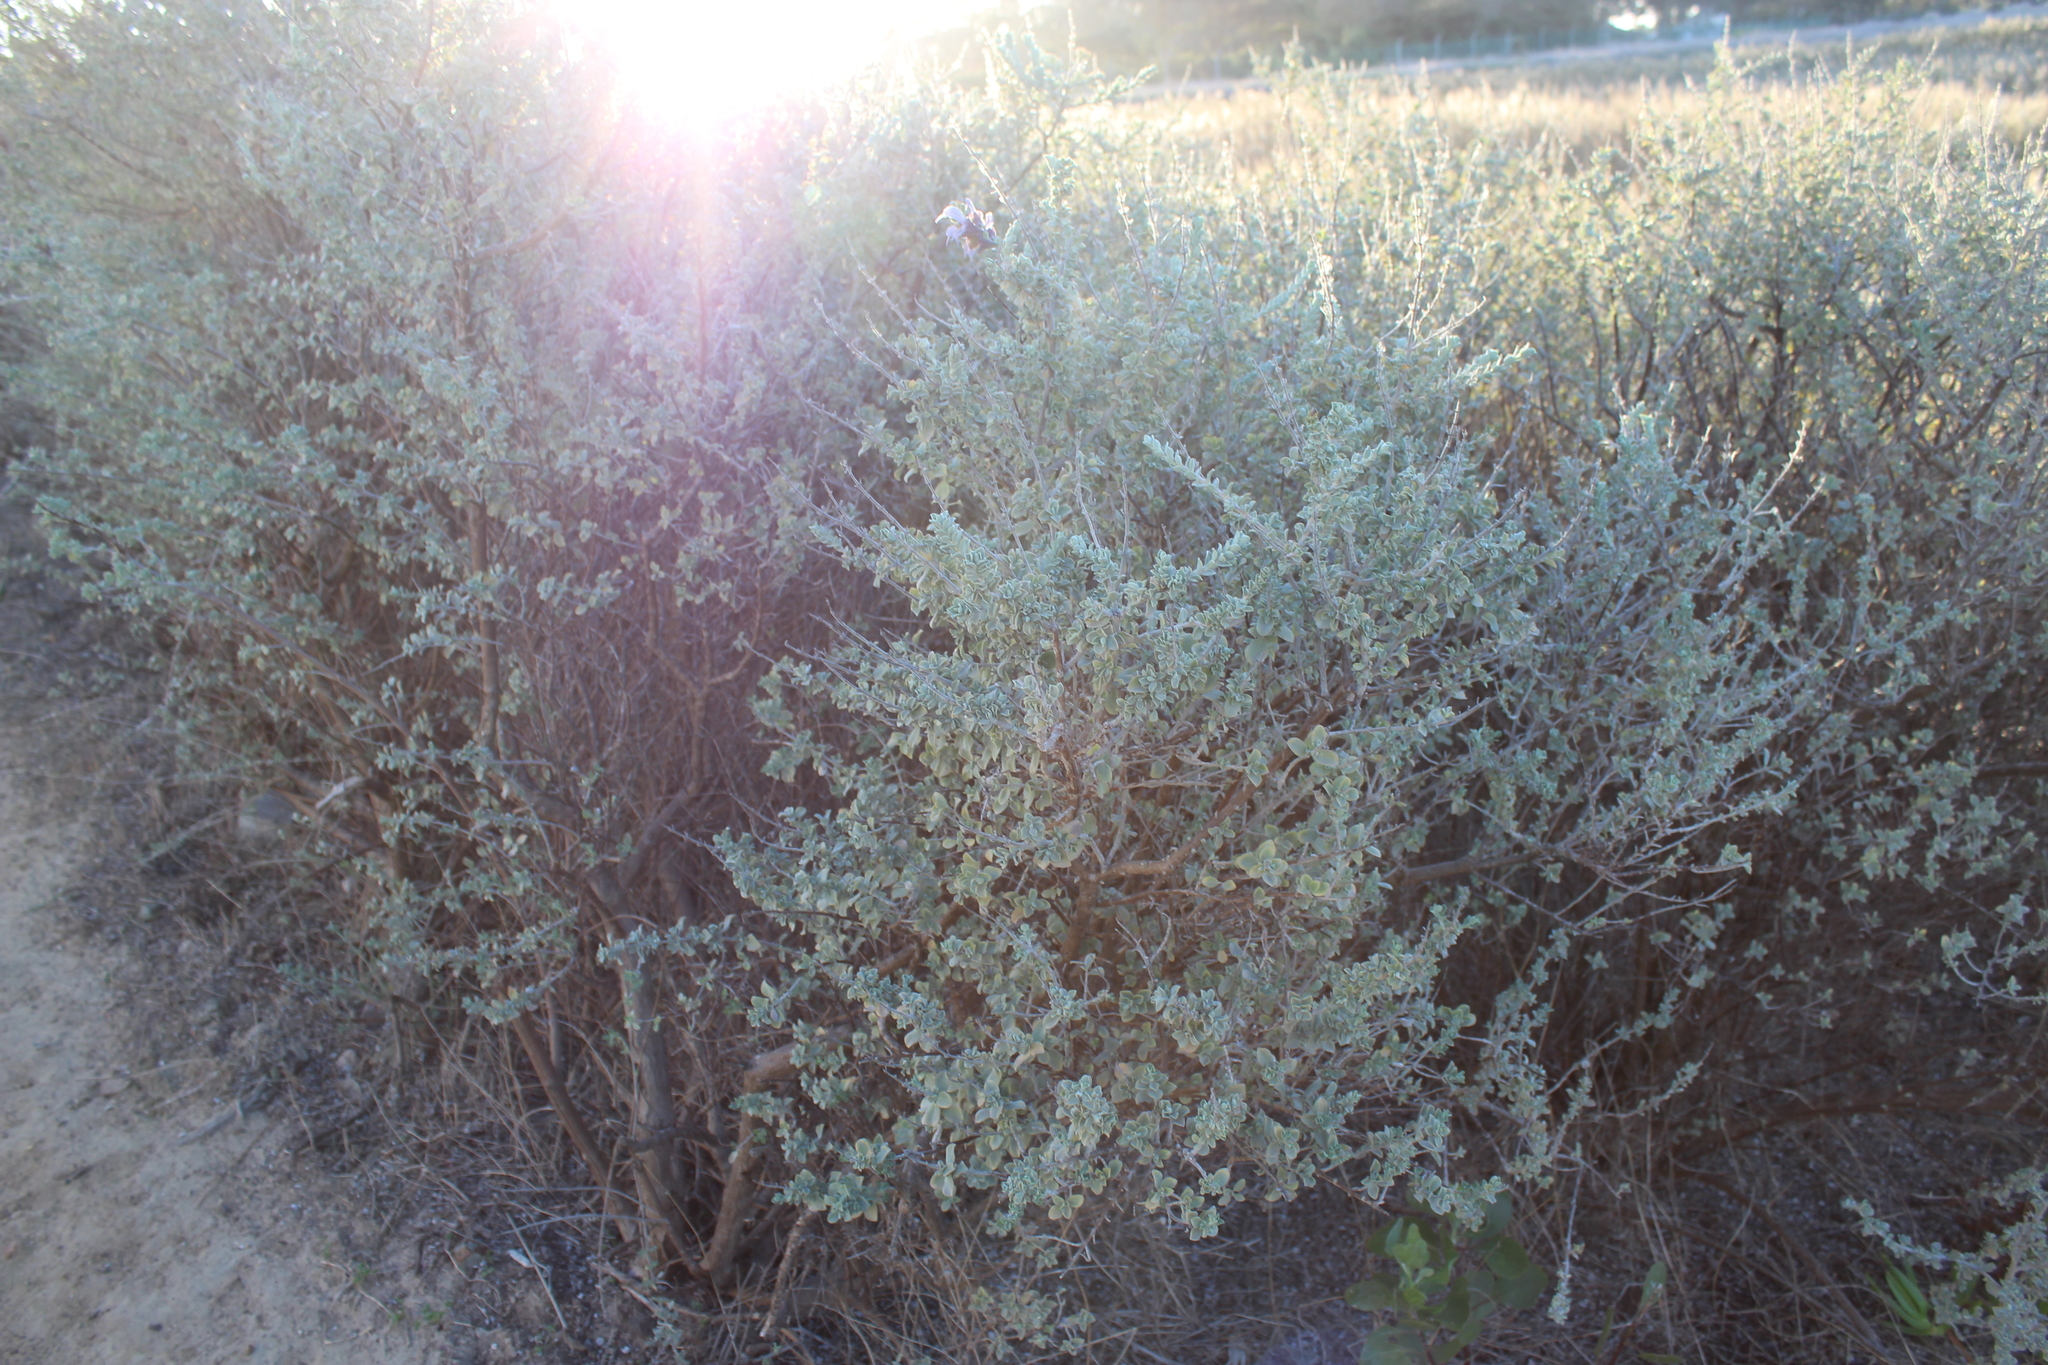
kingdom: Plantae
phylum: Tracheophyta
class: Magnoliopsida
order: Lamiales
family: Lamiaceae
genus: Salvia
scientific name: Salvia africana
